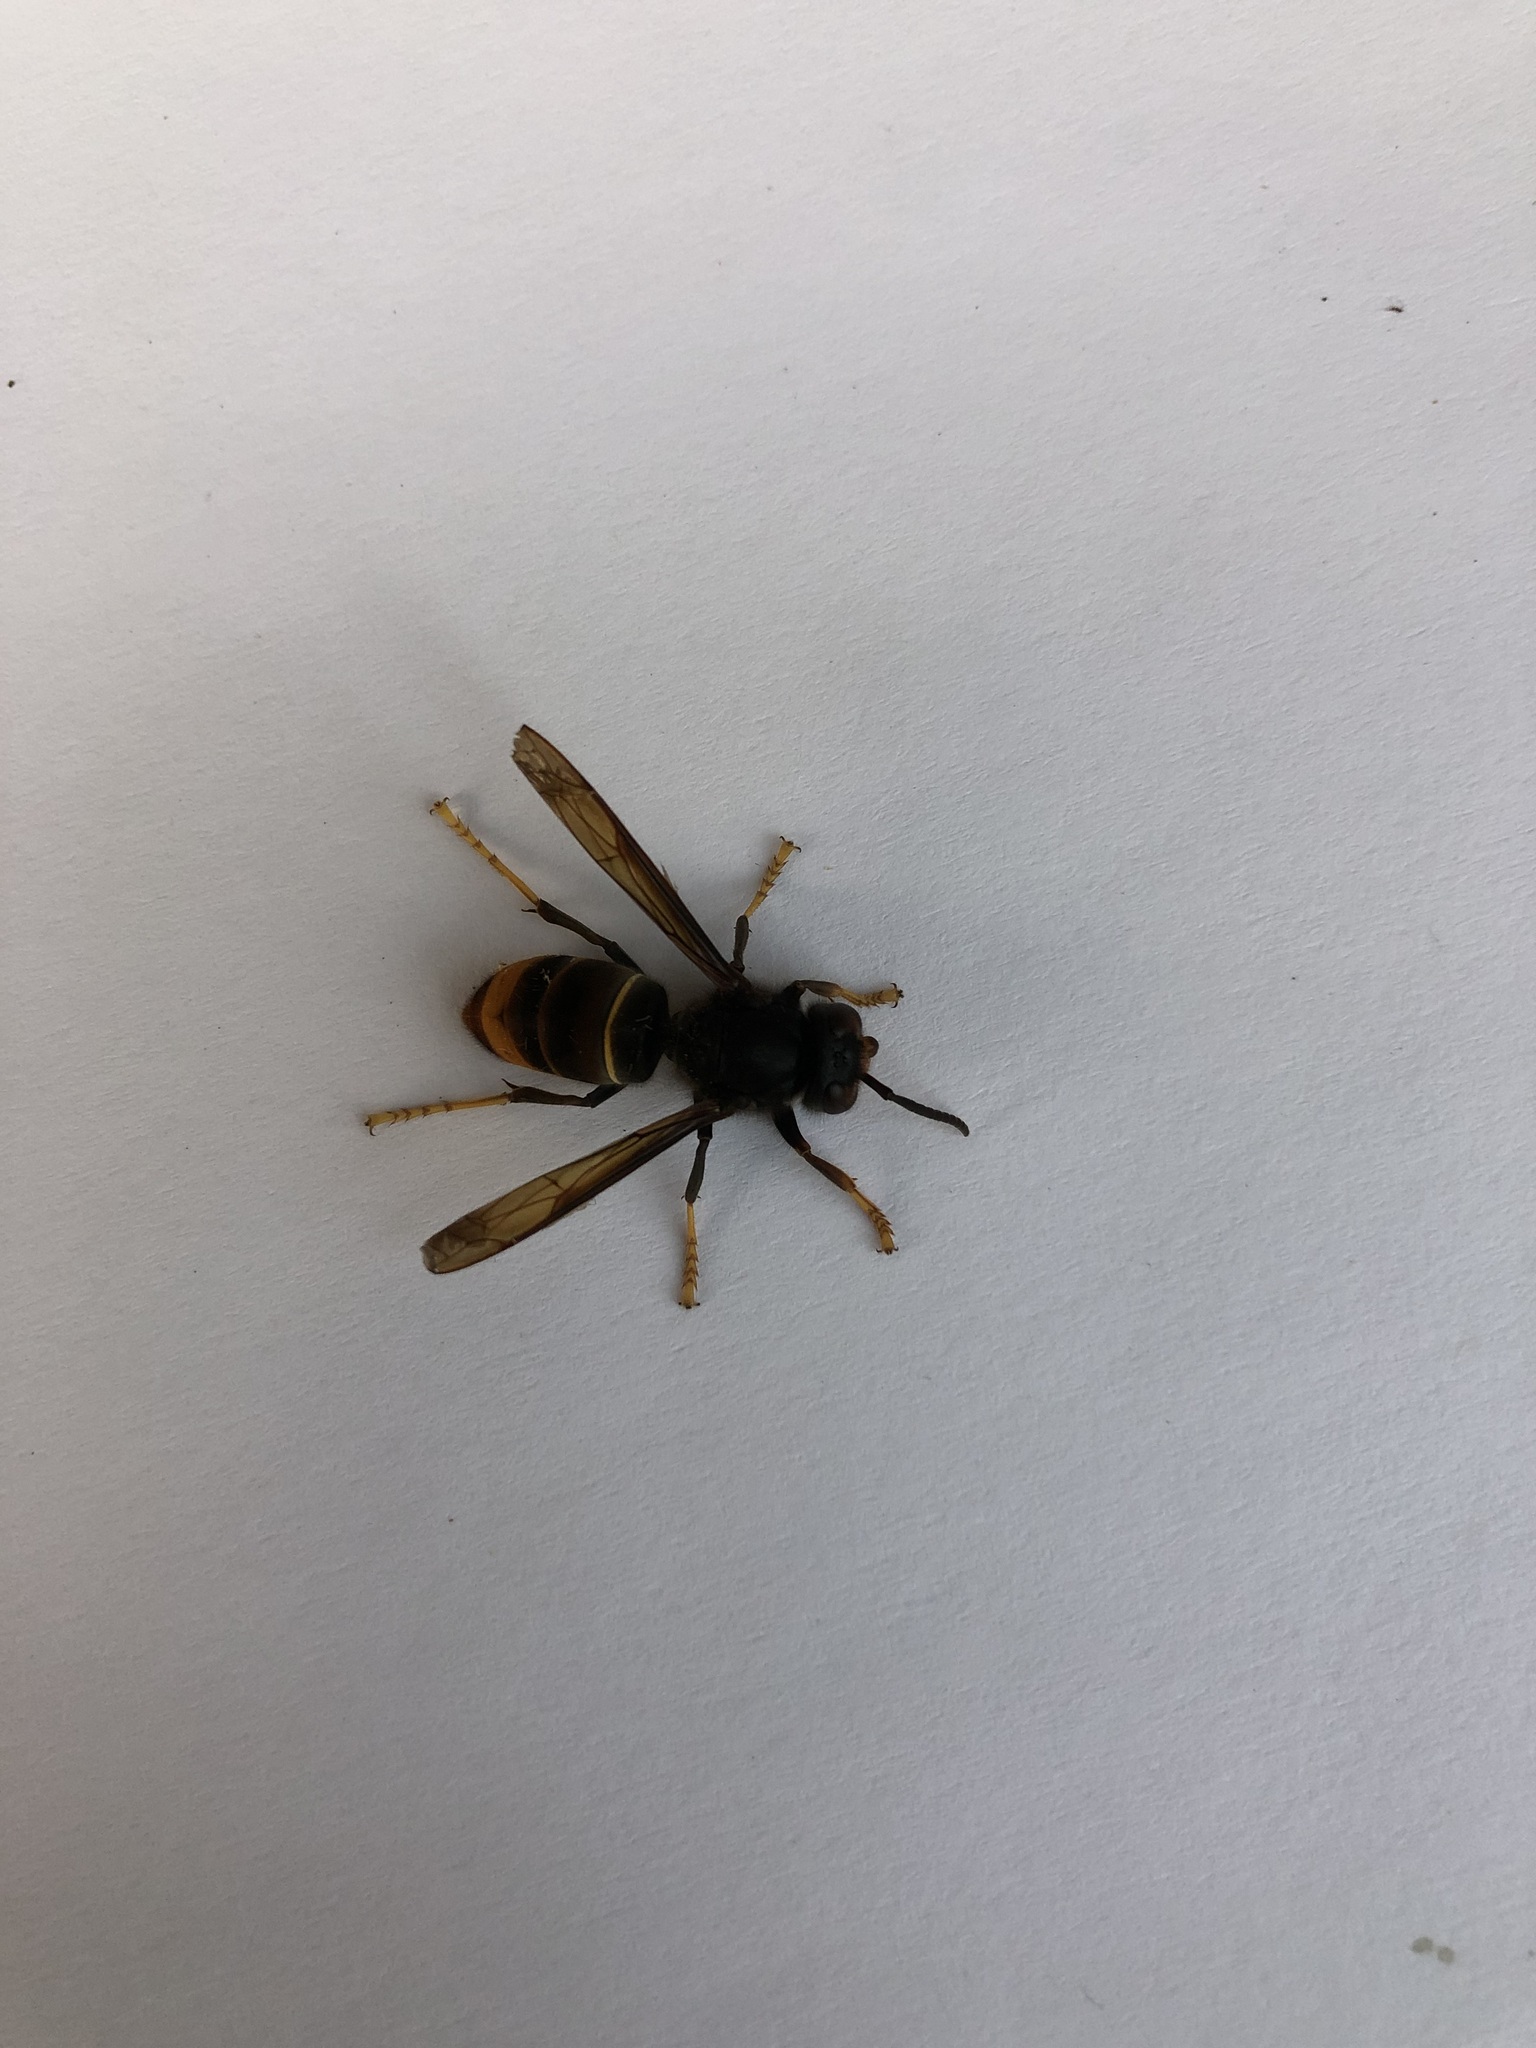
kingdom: Animalia
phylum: Arthropoda
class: Insecta
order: Hymenoptera
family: Vespidae
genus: Vespa
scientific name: Vespa velutina
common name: Asian hornet
